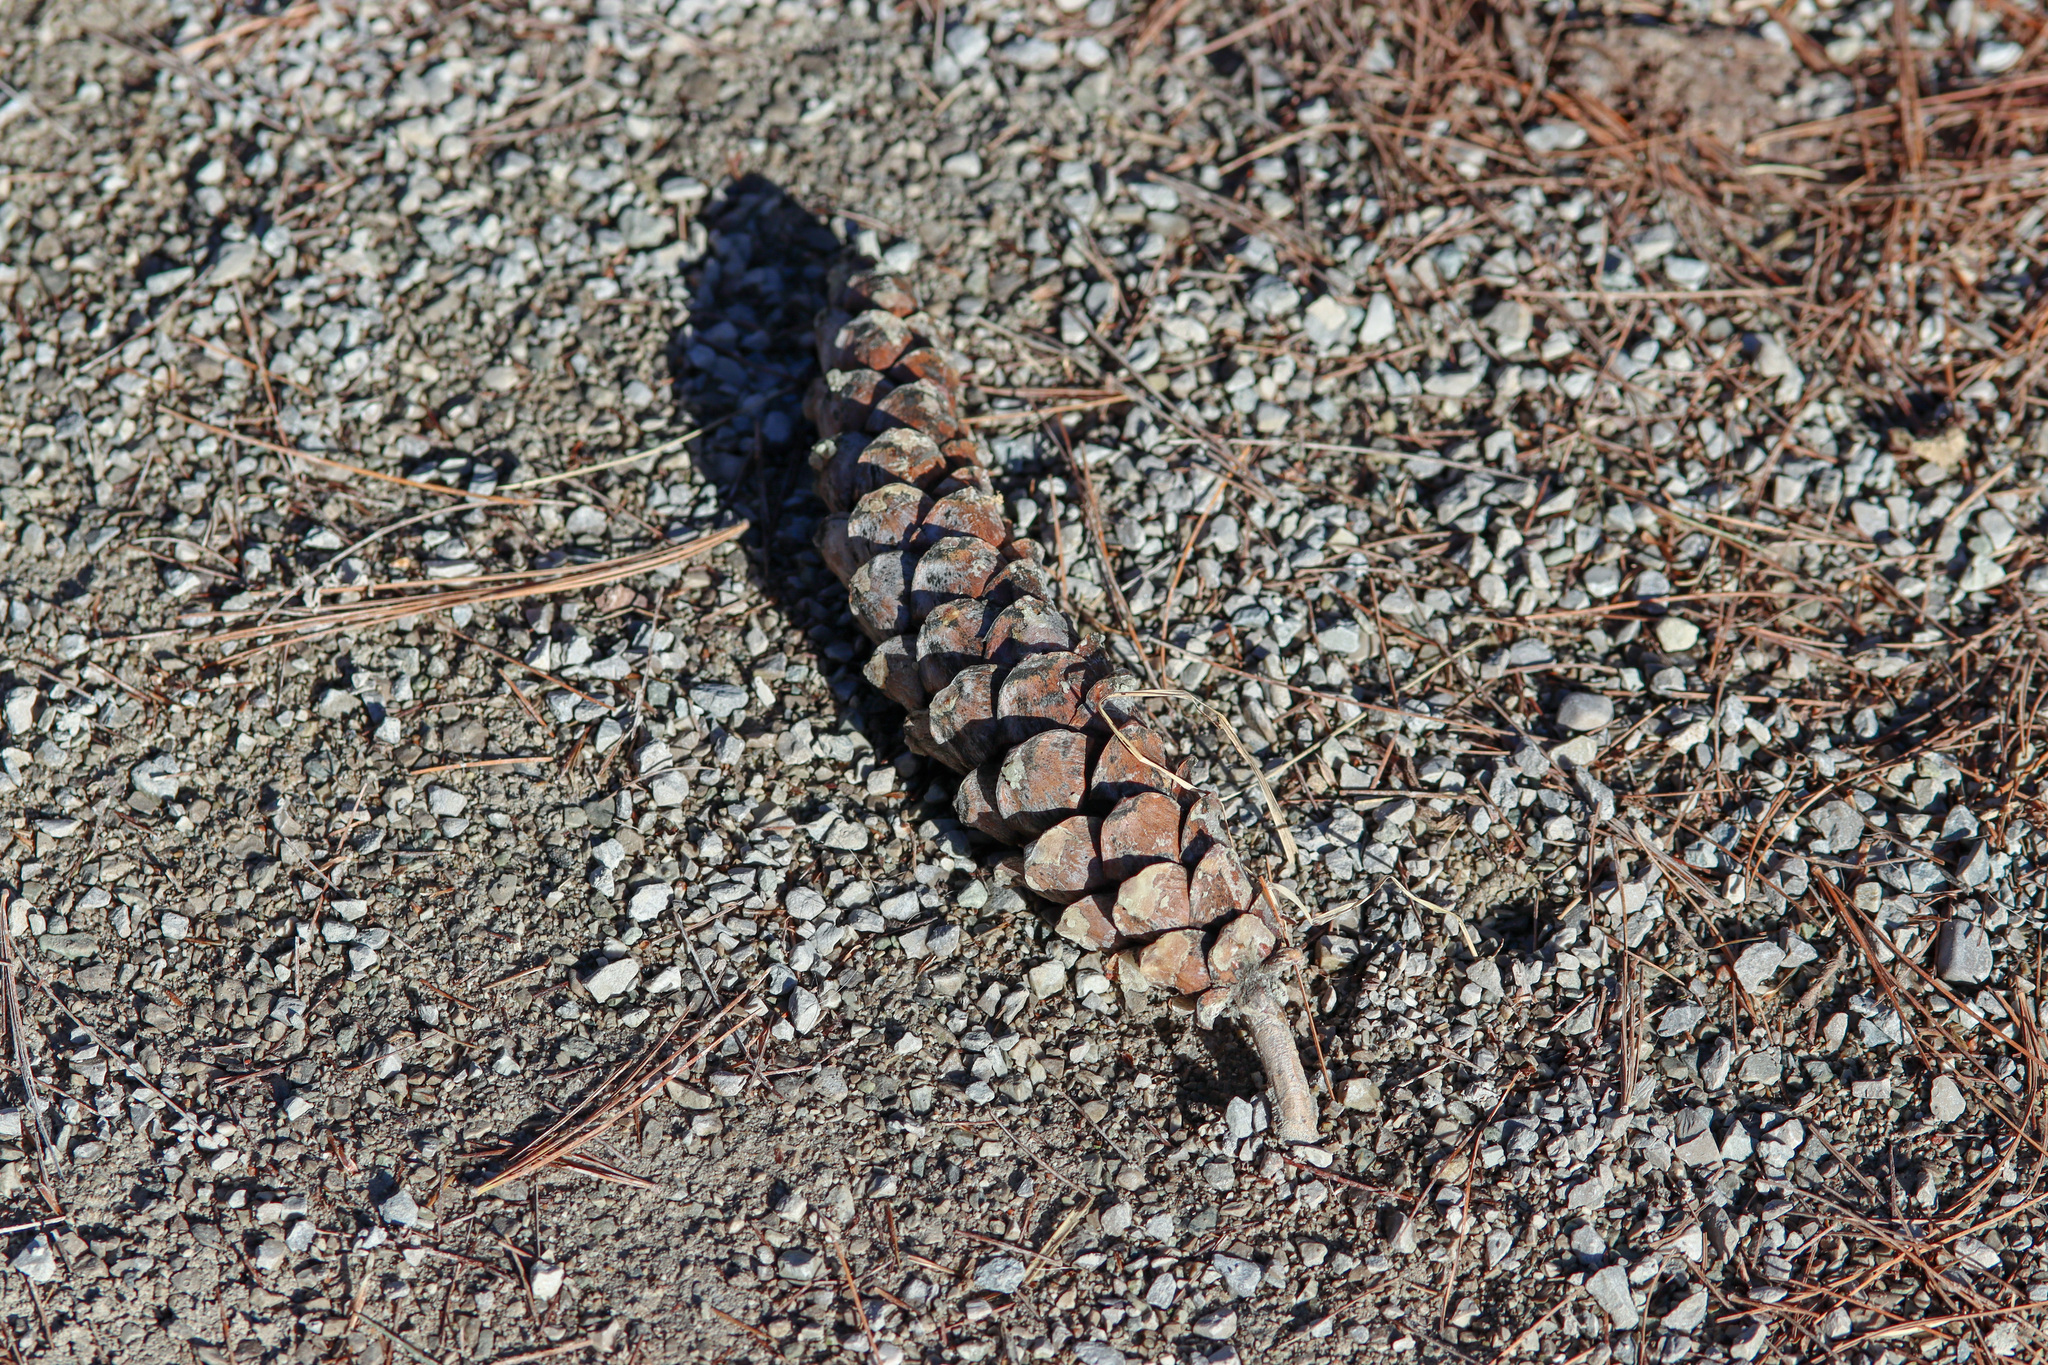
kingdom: Plantae
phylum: Tracheophyta
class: Pinopsida
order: Pinales
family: Pinaceae
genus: Pinus
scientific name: Pinus strobus
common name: Weymouth pine
